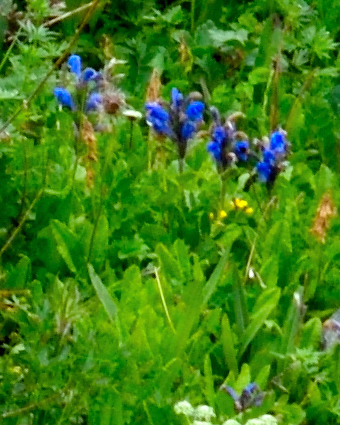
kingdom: Plantae
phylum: Tracheophyta
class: Magnoliopsida
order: Lamiales
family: Lamiaceae
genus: Dracocephalum
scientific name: Dracocephalum grandiflorum
